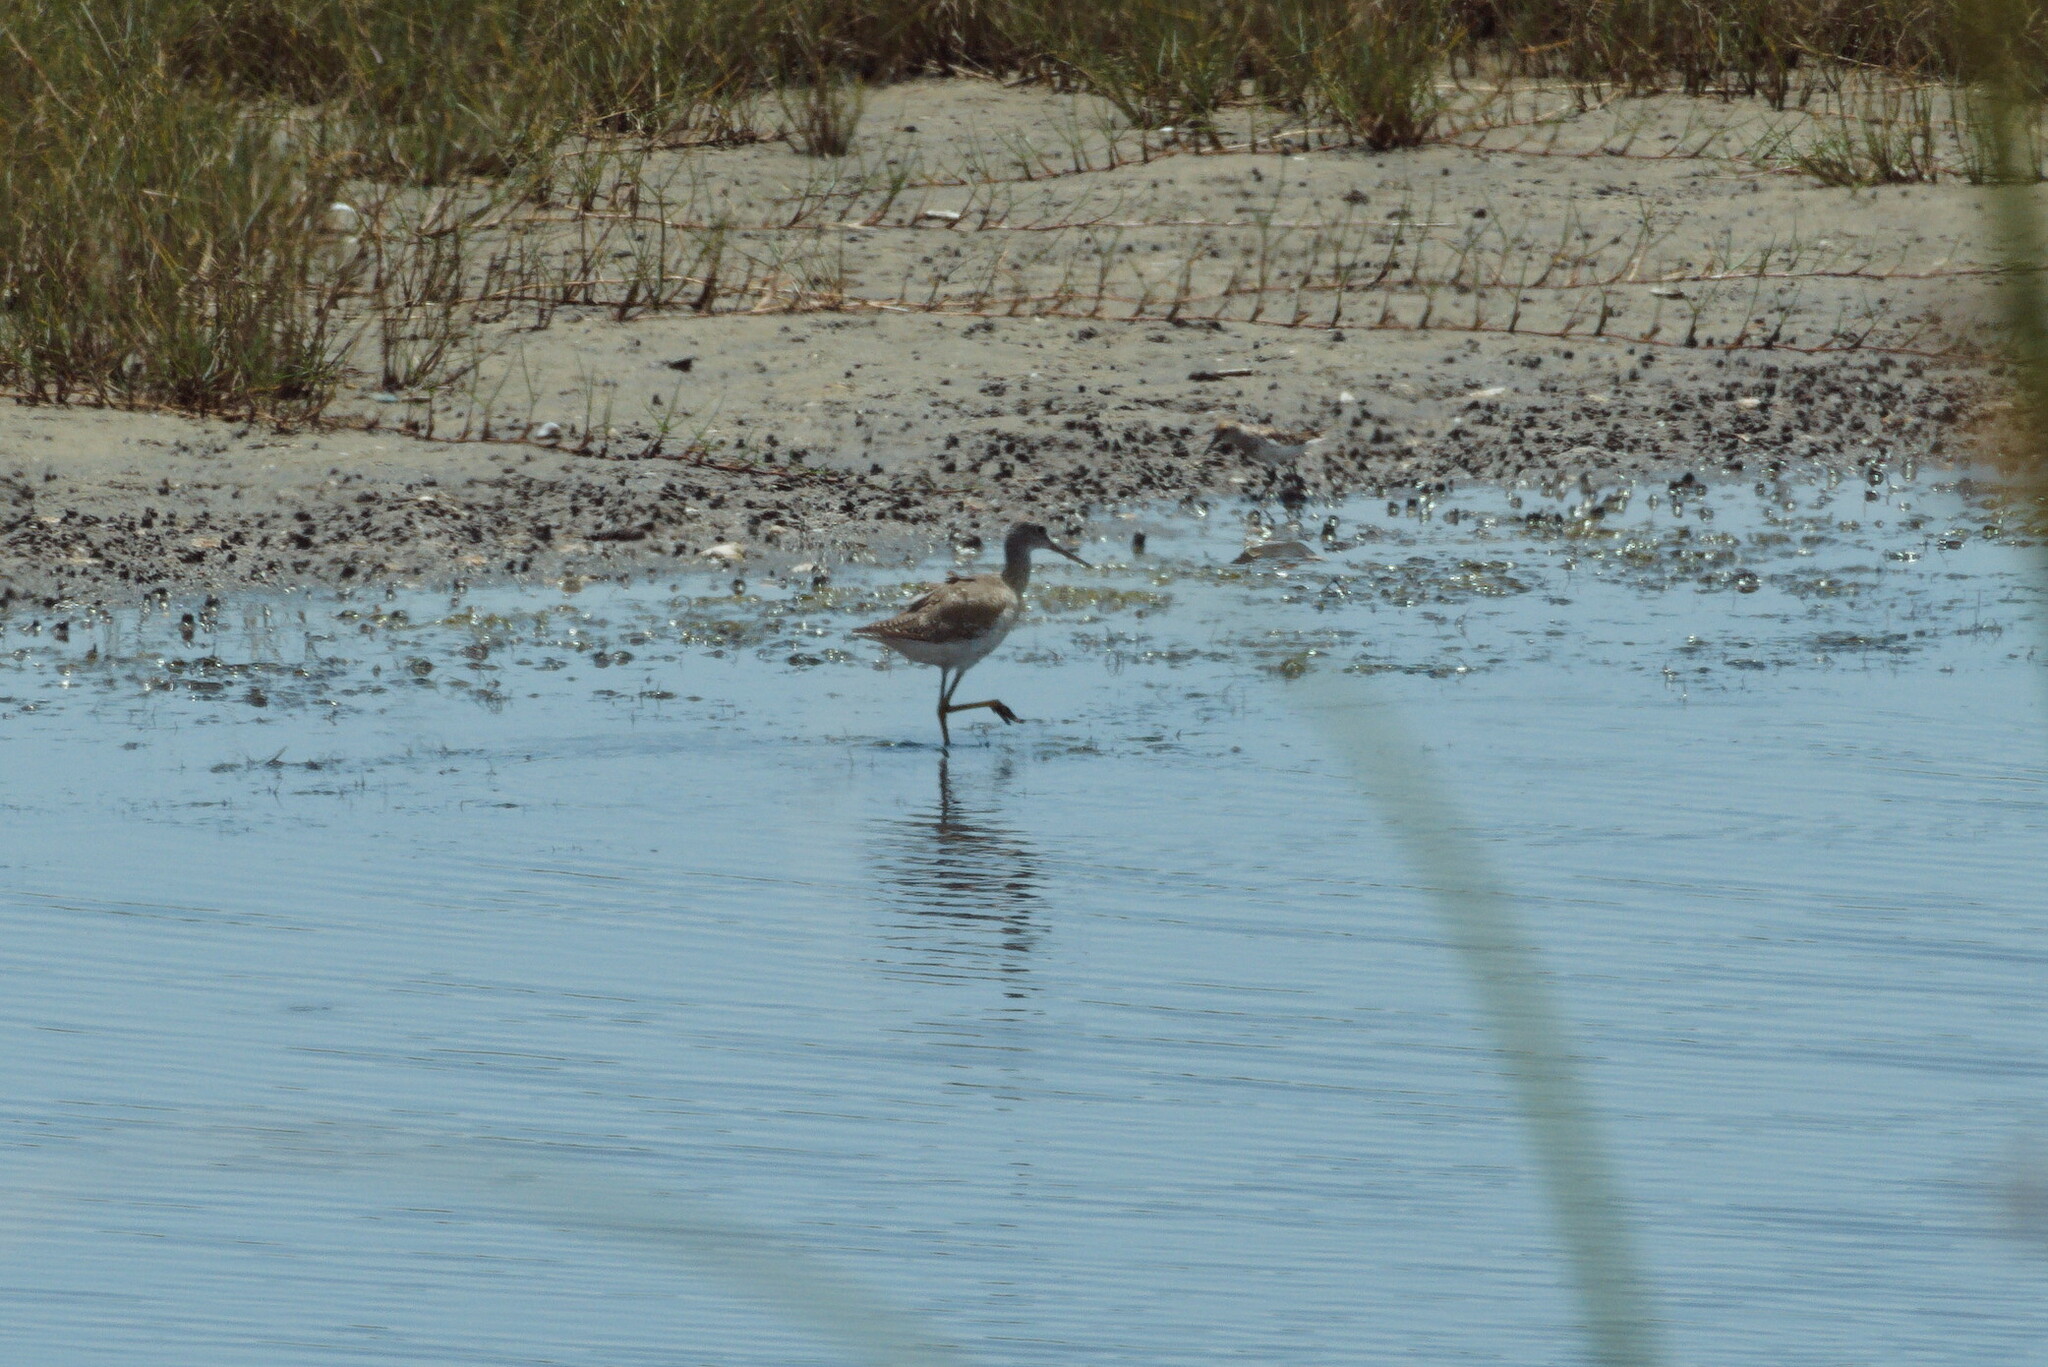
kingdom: Animalia
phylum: Chordata
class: Aves
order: Charadriiformes
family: Scolopacidae
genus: Tringa
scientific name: Tringa melanoleuca
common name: Greater yellowlegs
